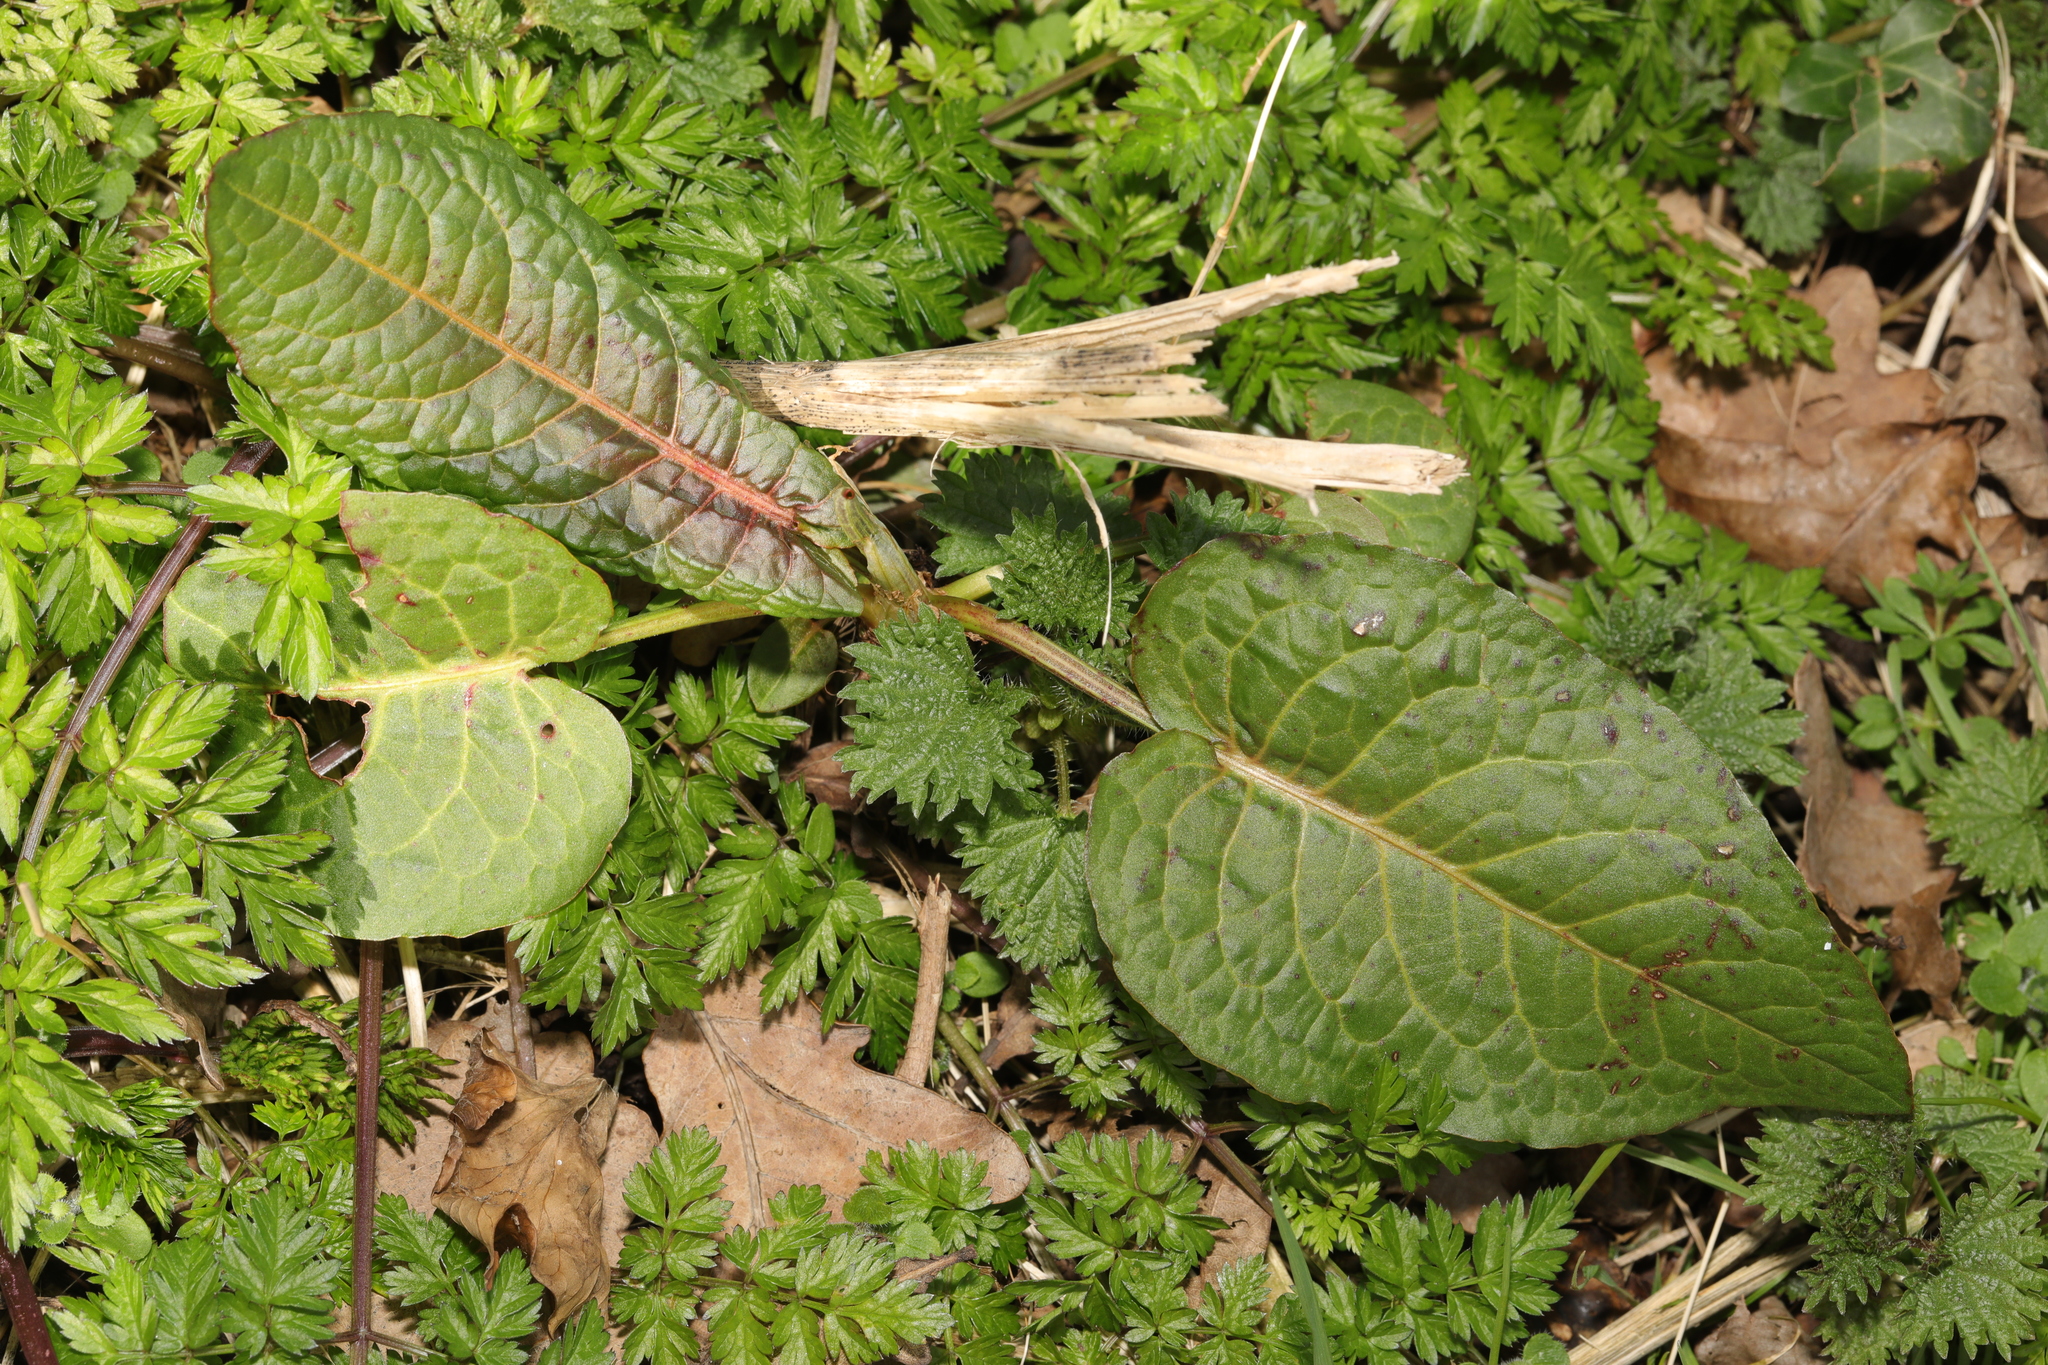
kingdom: Plantae
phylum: Tracheophyta
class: Magnoliopsida
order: Caryophyllales
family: Polygonaceae
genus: Rumex
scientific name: Rumex obtusifolius
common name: Bitter dock
